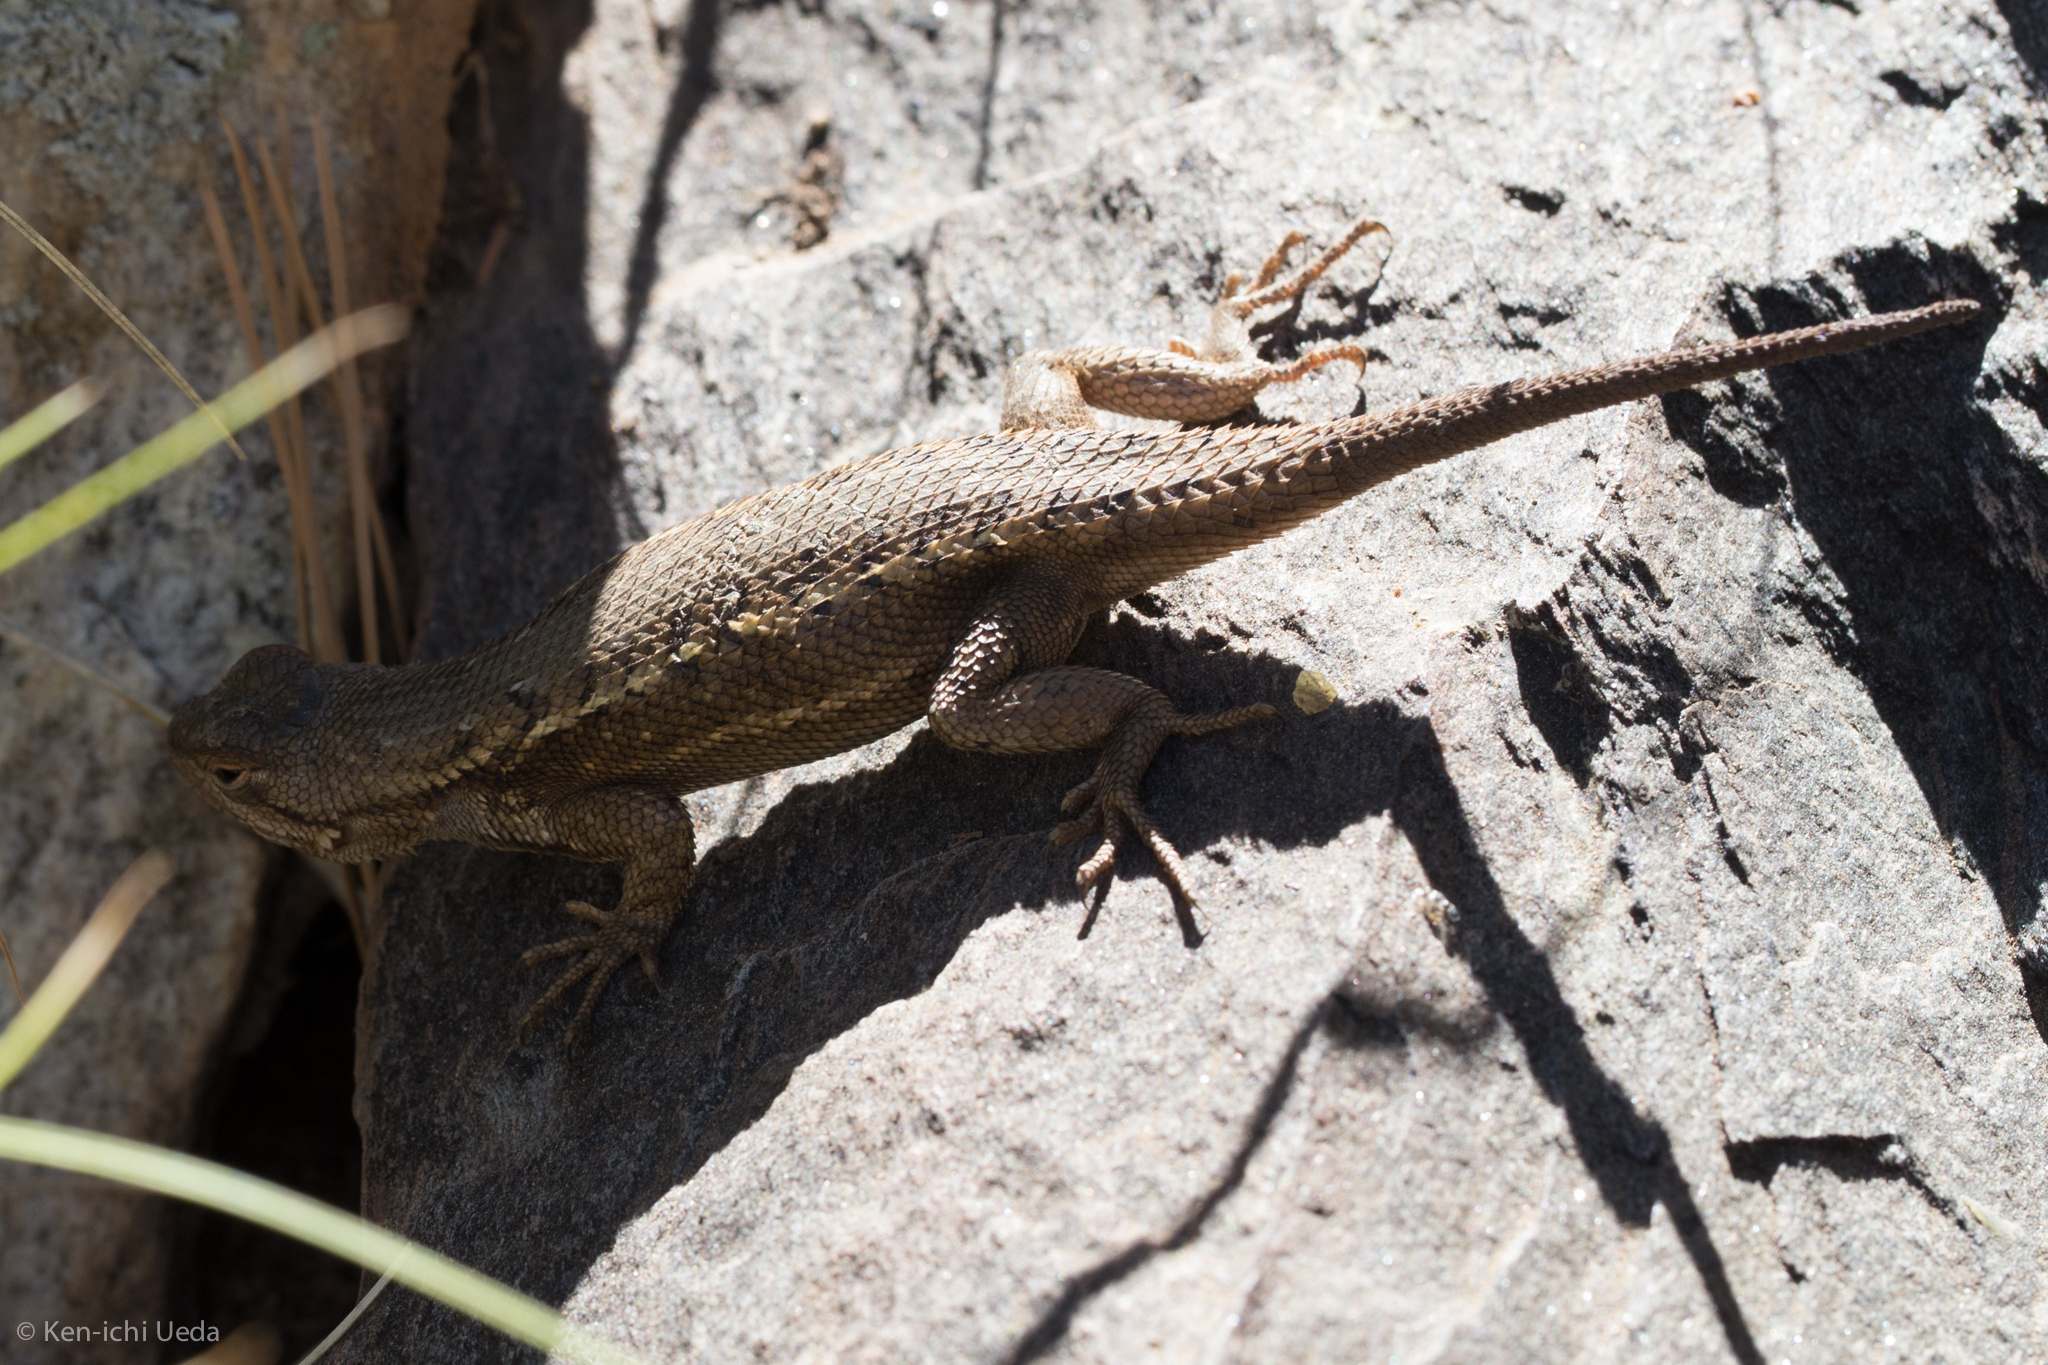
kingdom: Animalia
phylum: Chordata
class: Squamata
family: Phrynosomatidae
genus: Sceloporus
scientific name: Sceloporus cowlesi
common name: White sands prairie lizard
